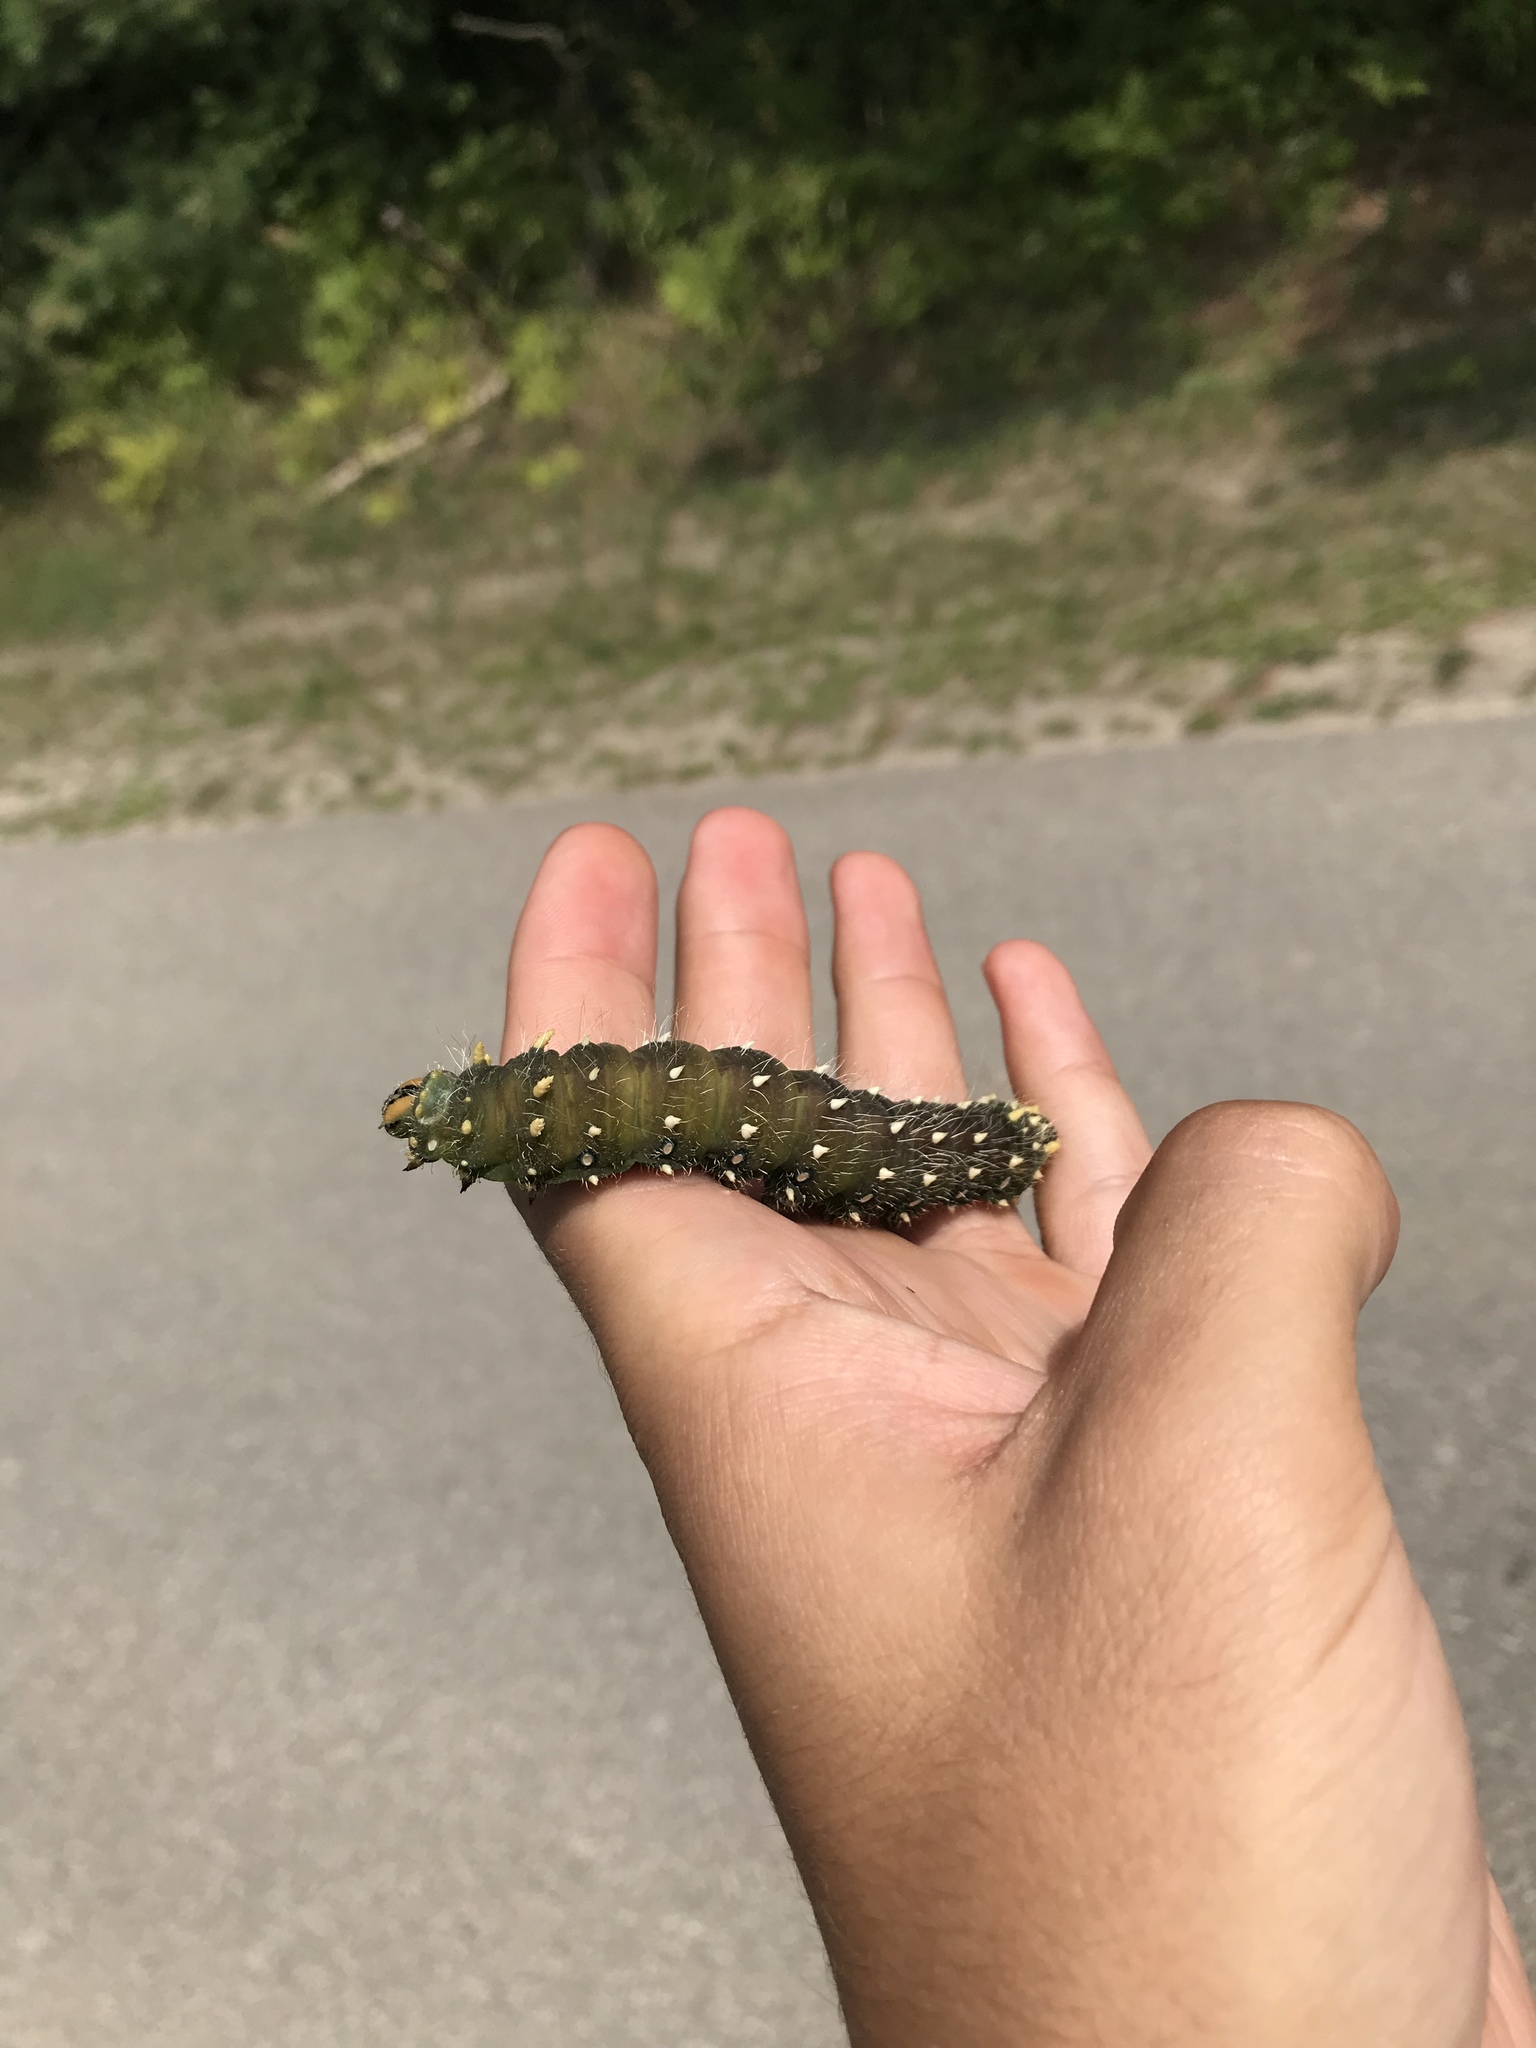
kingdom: Animalia
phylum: Arthropoda
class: Insecta
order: Lepidoptera
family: Saturniidae
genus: Eacles
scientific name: Eacles
